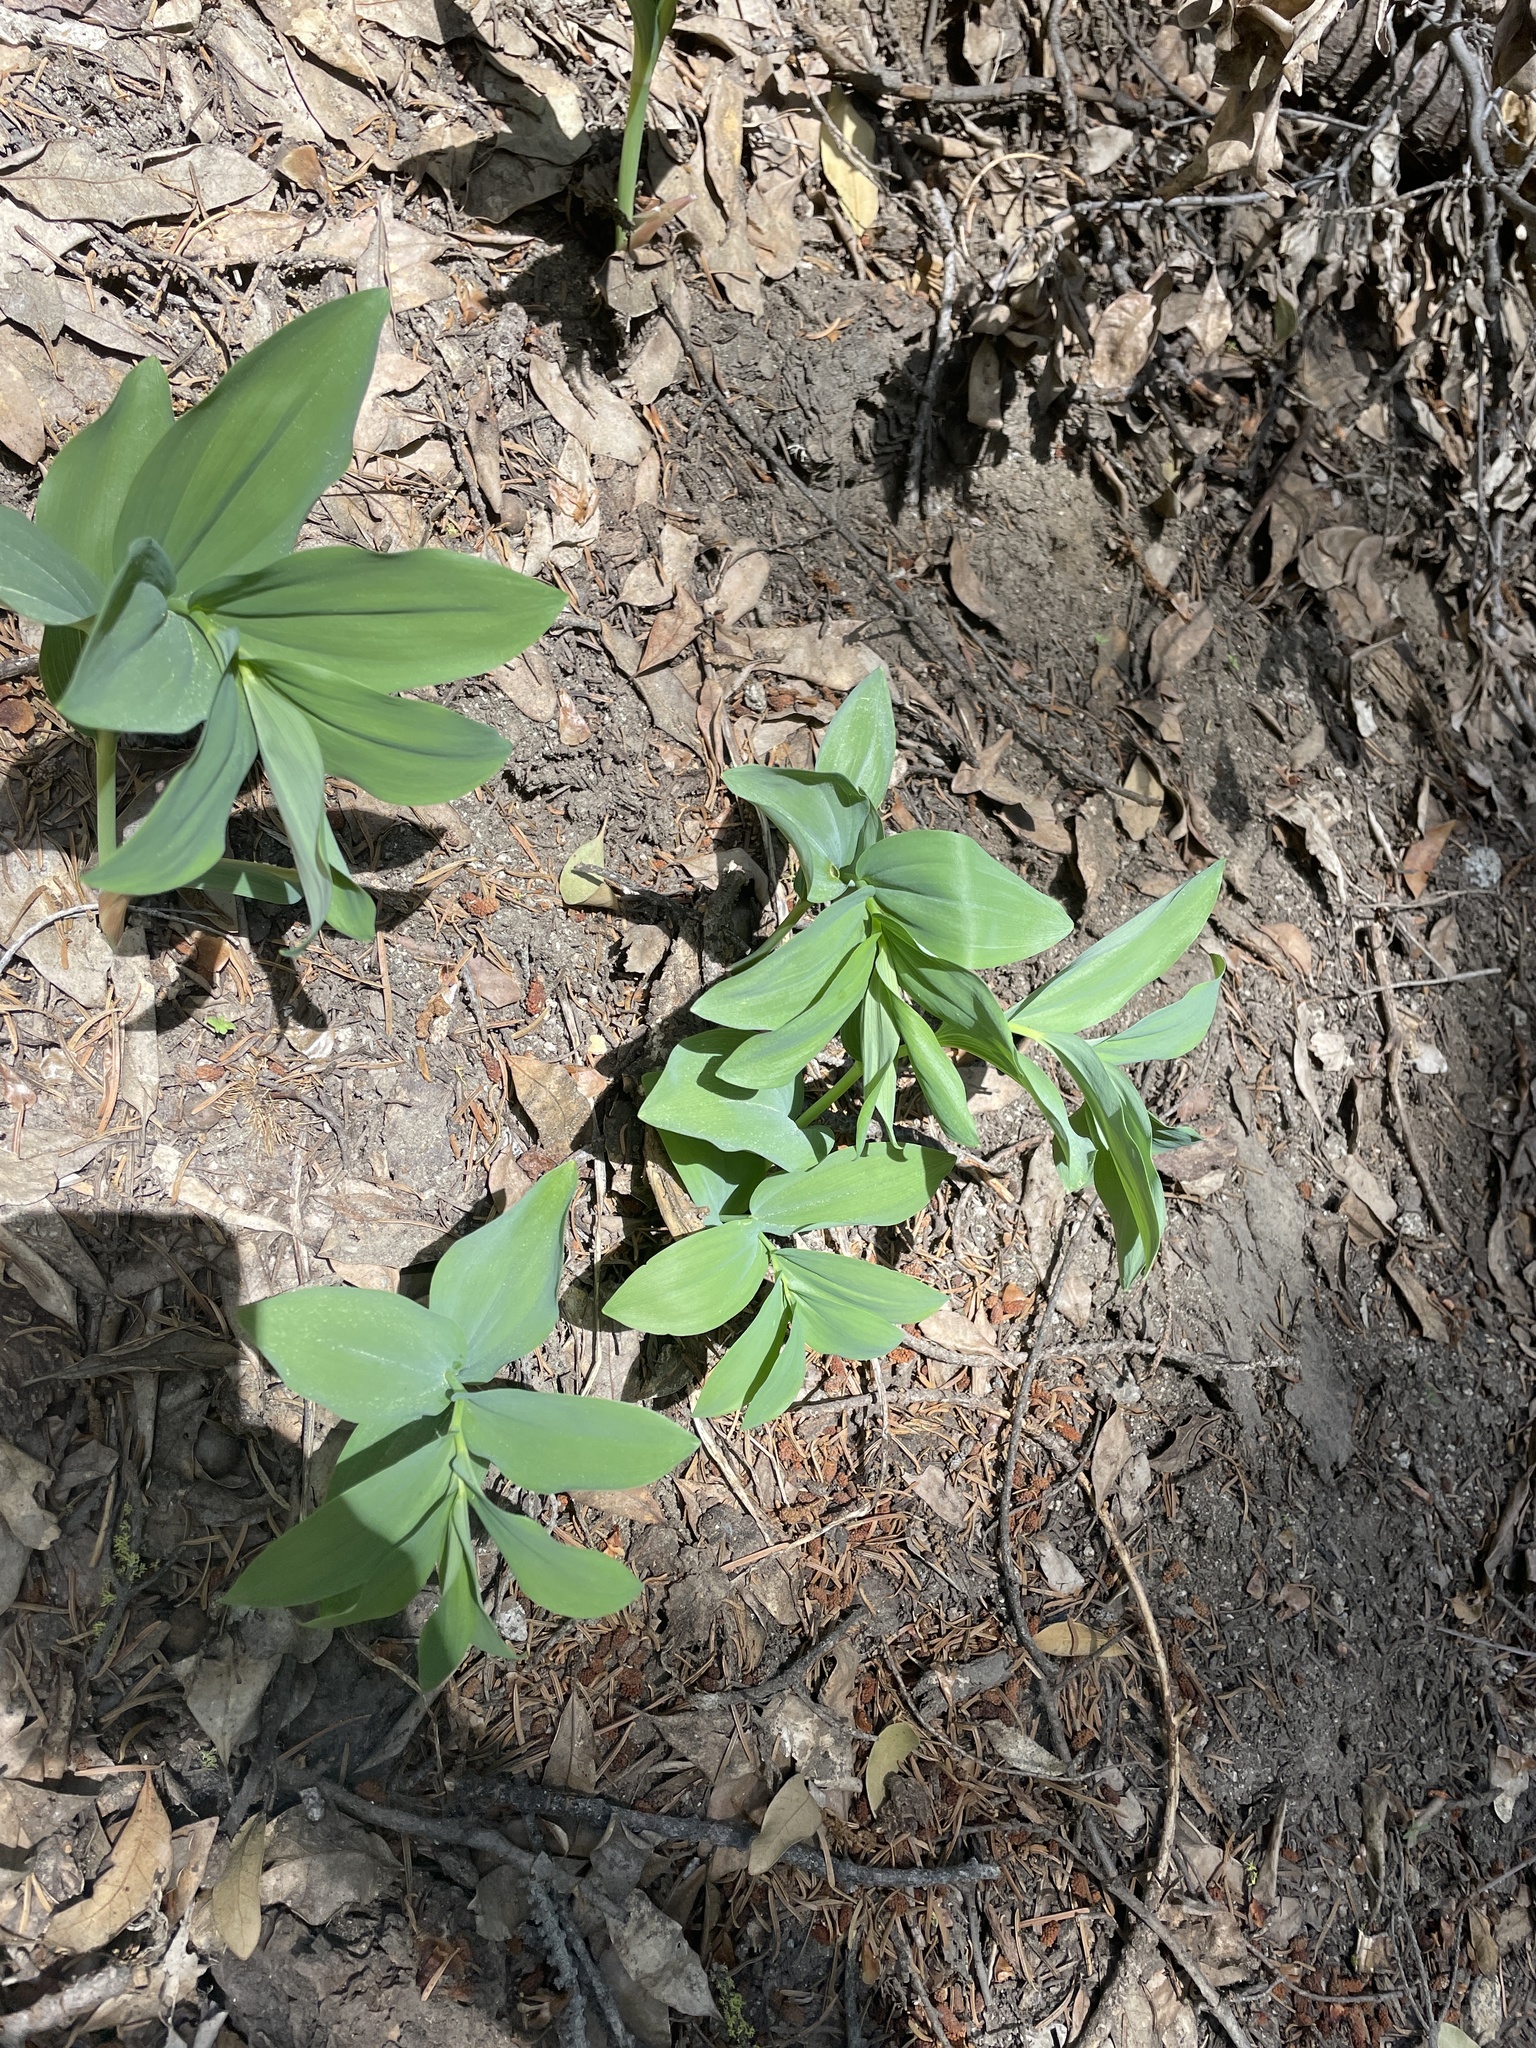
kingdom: Plantae
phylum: Tracheophyta
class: Liliopsida
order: Asparagales
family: Asparagaceae
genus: Maianthemum
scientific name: Maianthemum racemosum
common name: False spikenard
